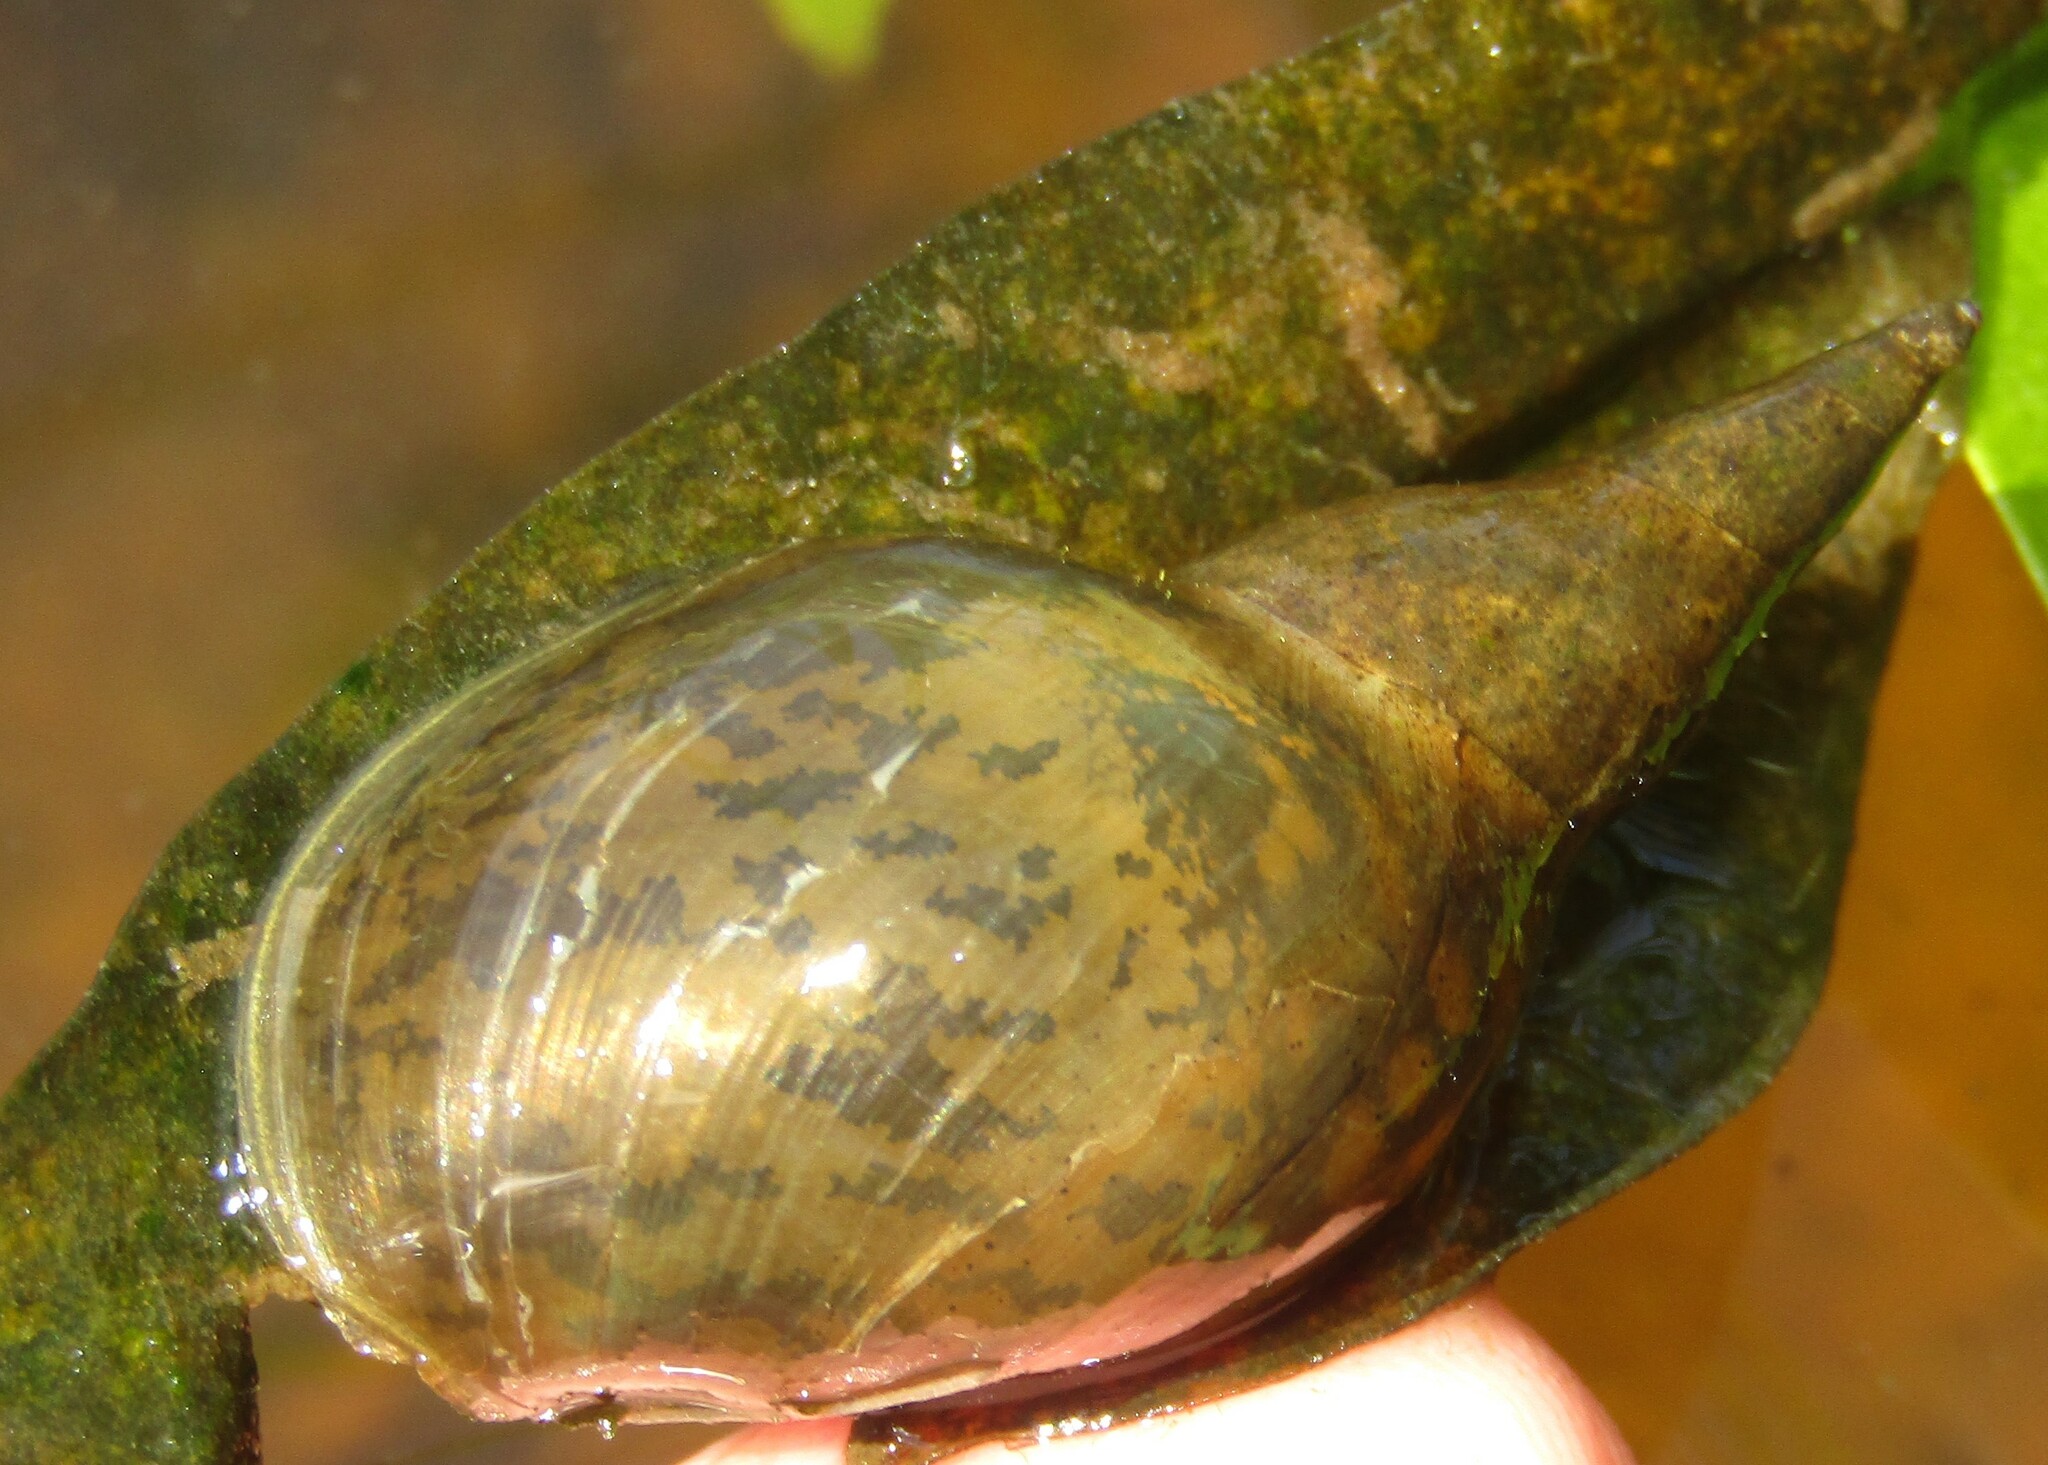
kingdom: Animalia
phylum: Mollusca
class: Gastropoda
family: Lymnaeidae
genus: Lymnaea
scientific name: Lymnaea stagnalis
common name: Great pond snail
